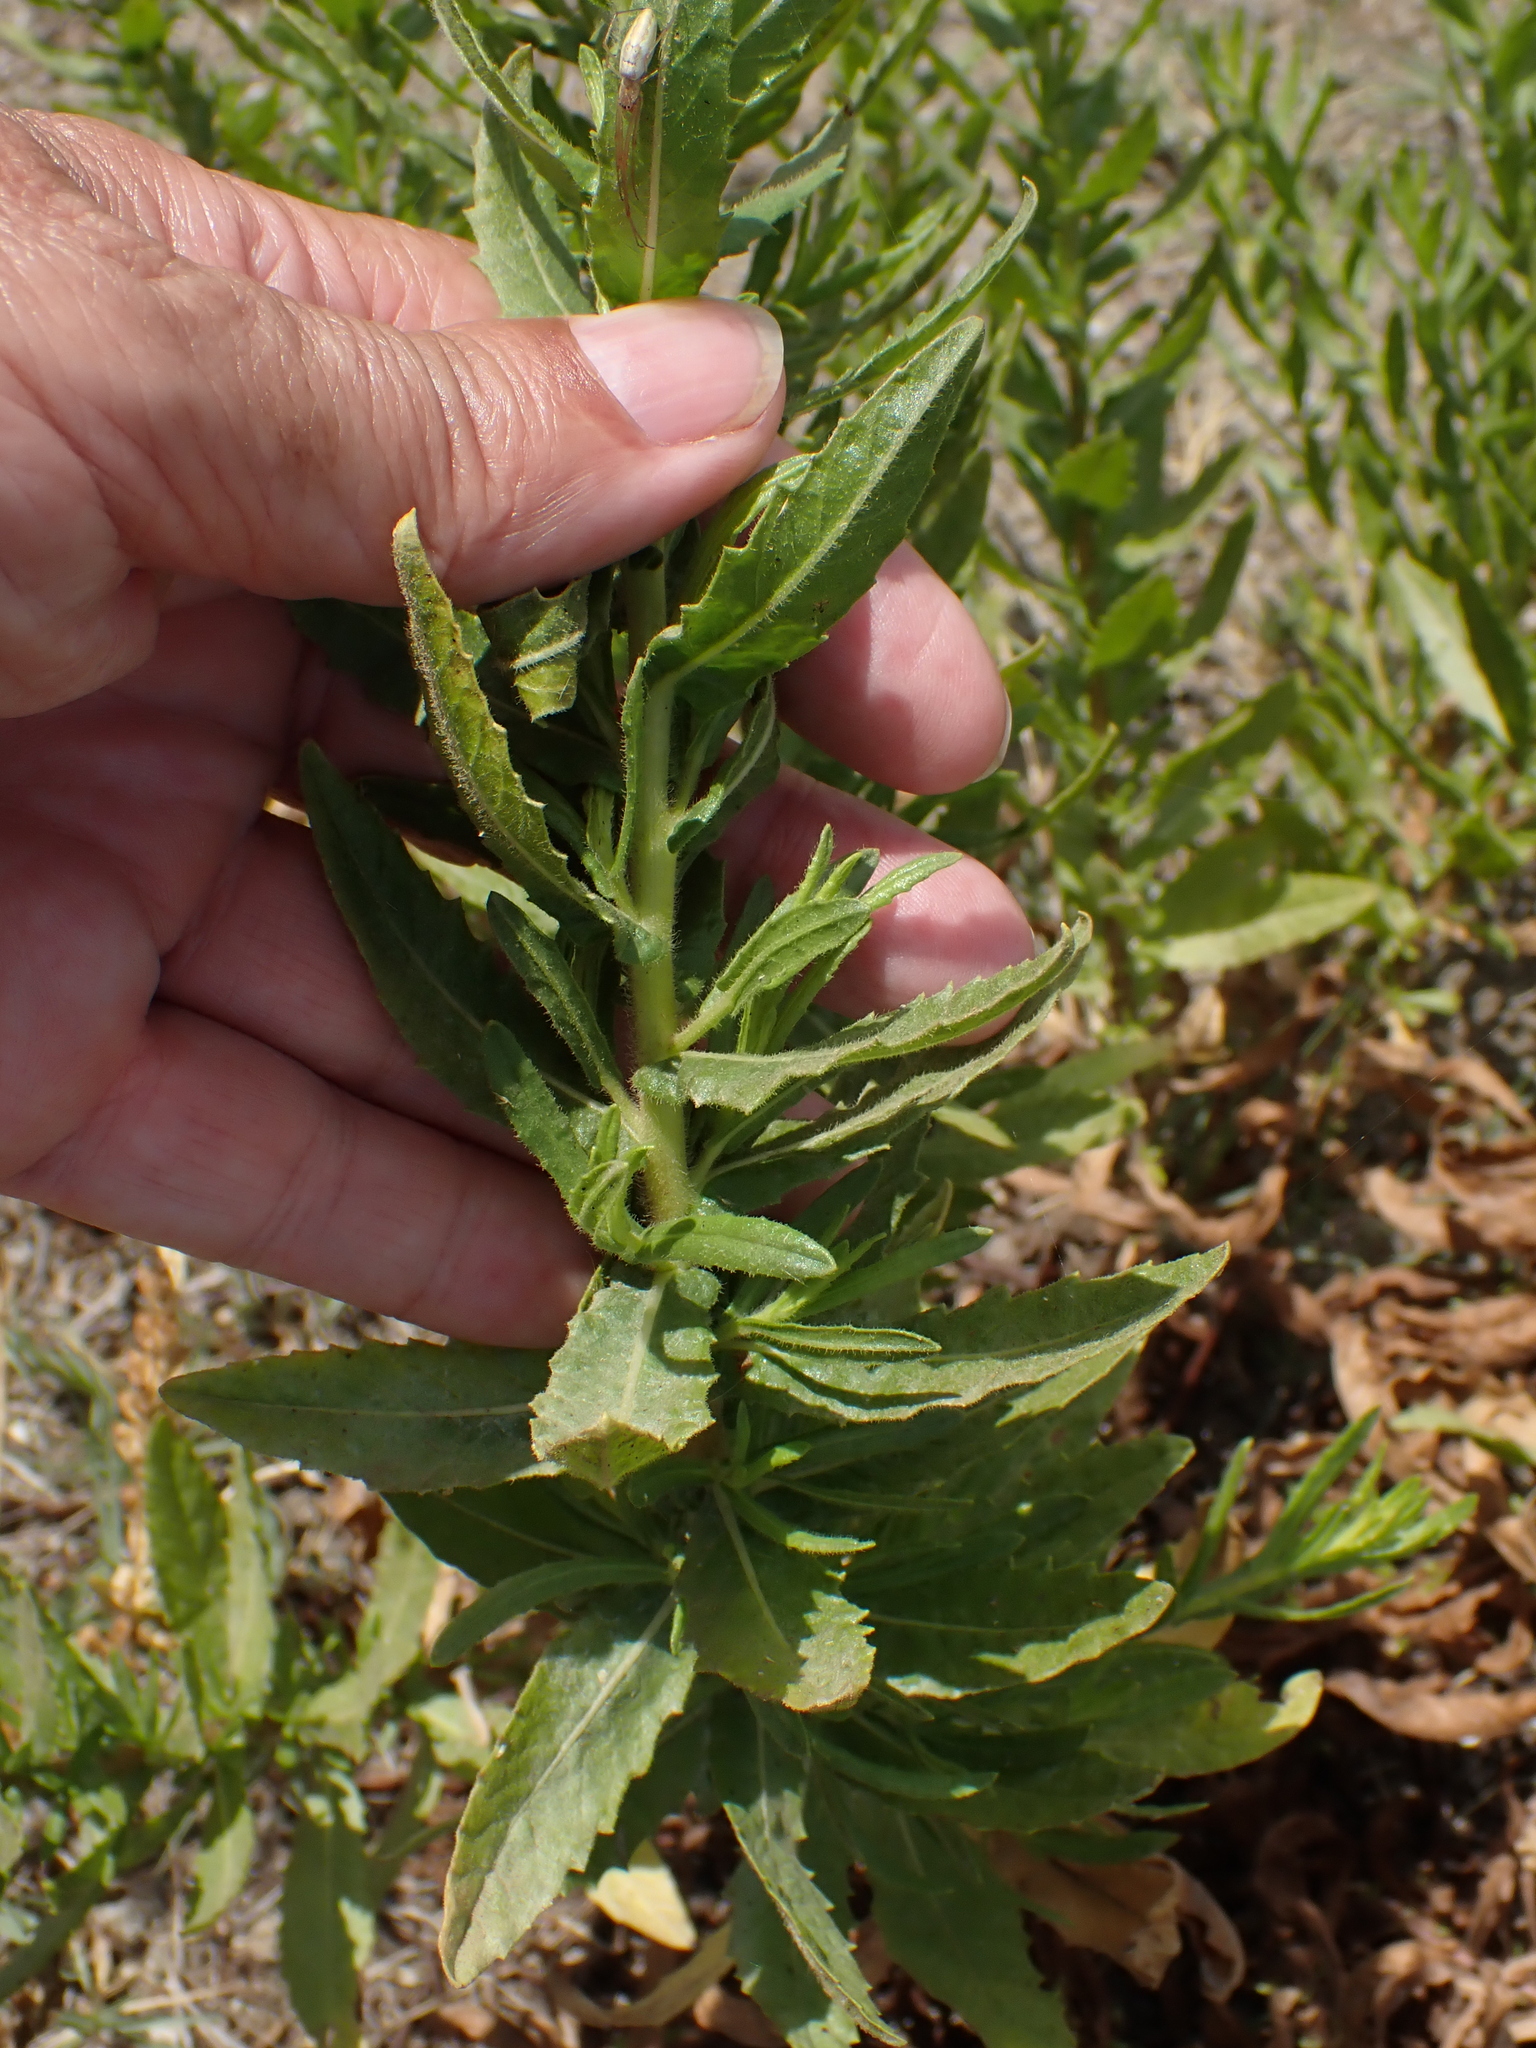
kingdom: Plantae
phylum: Tracheophyta
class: Magnoliopsida
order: Asterales
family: Asteraceae
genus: Dittrichia
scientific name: Dittrichia viscosa
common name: Woody fleabane
